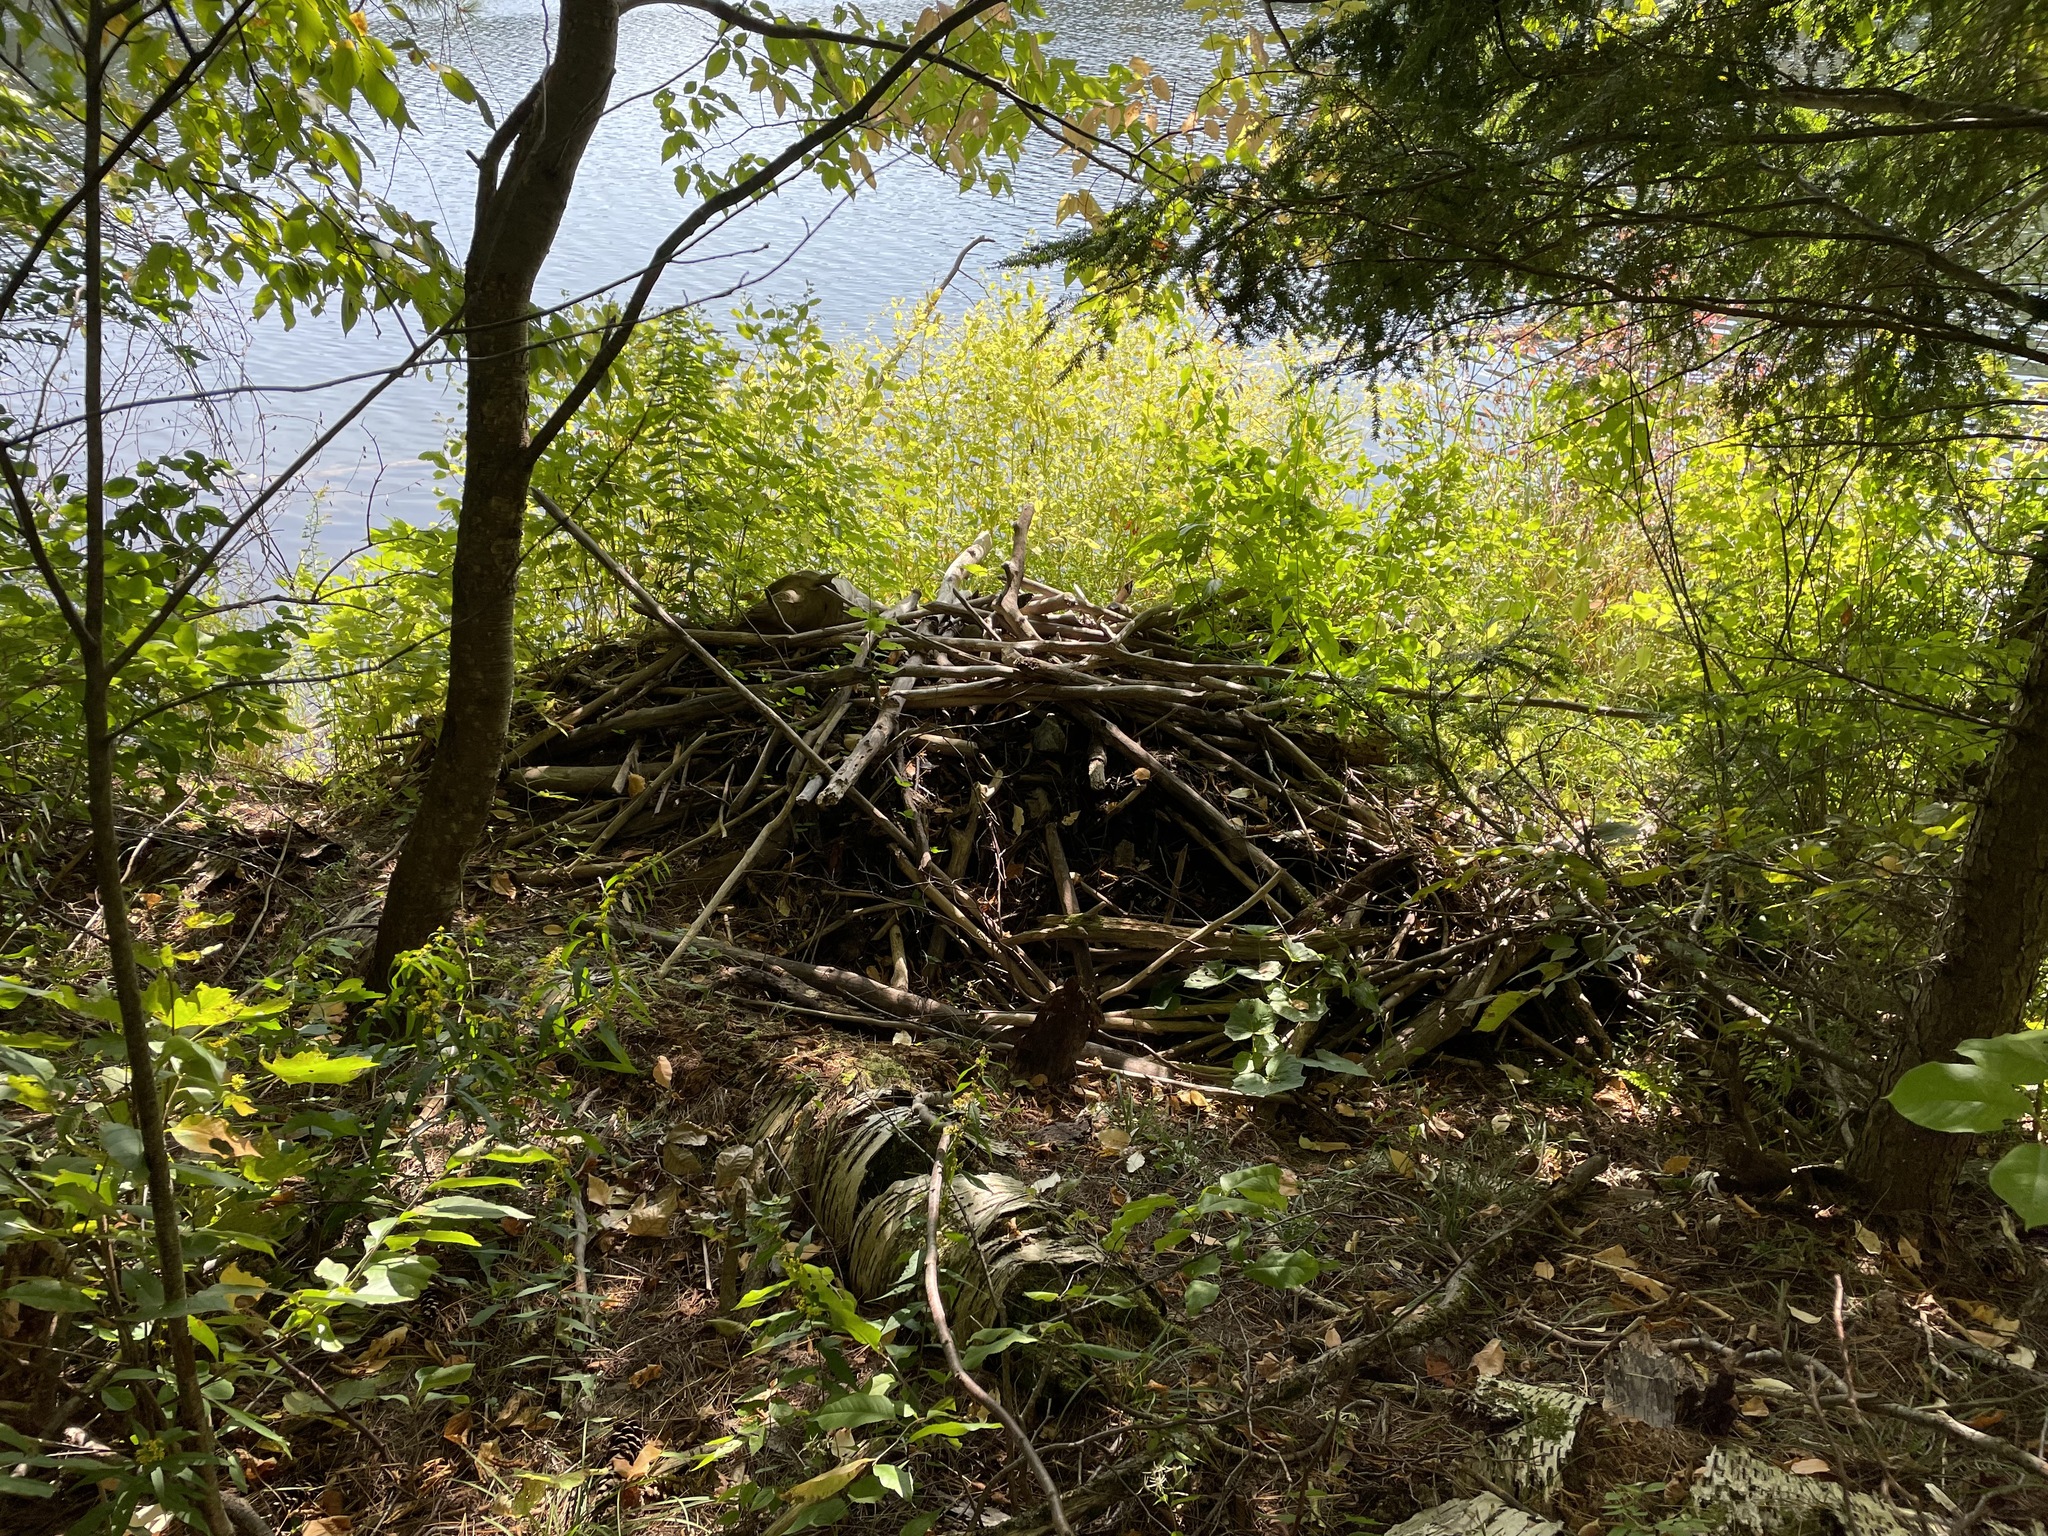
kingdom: Animalia
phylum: Chordata
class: Mammalia
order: Rodentia
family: Castoridae
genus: Castor
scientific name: Castor canadensis
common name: American beaver
